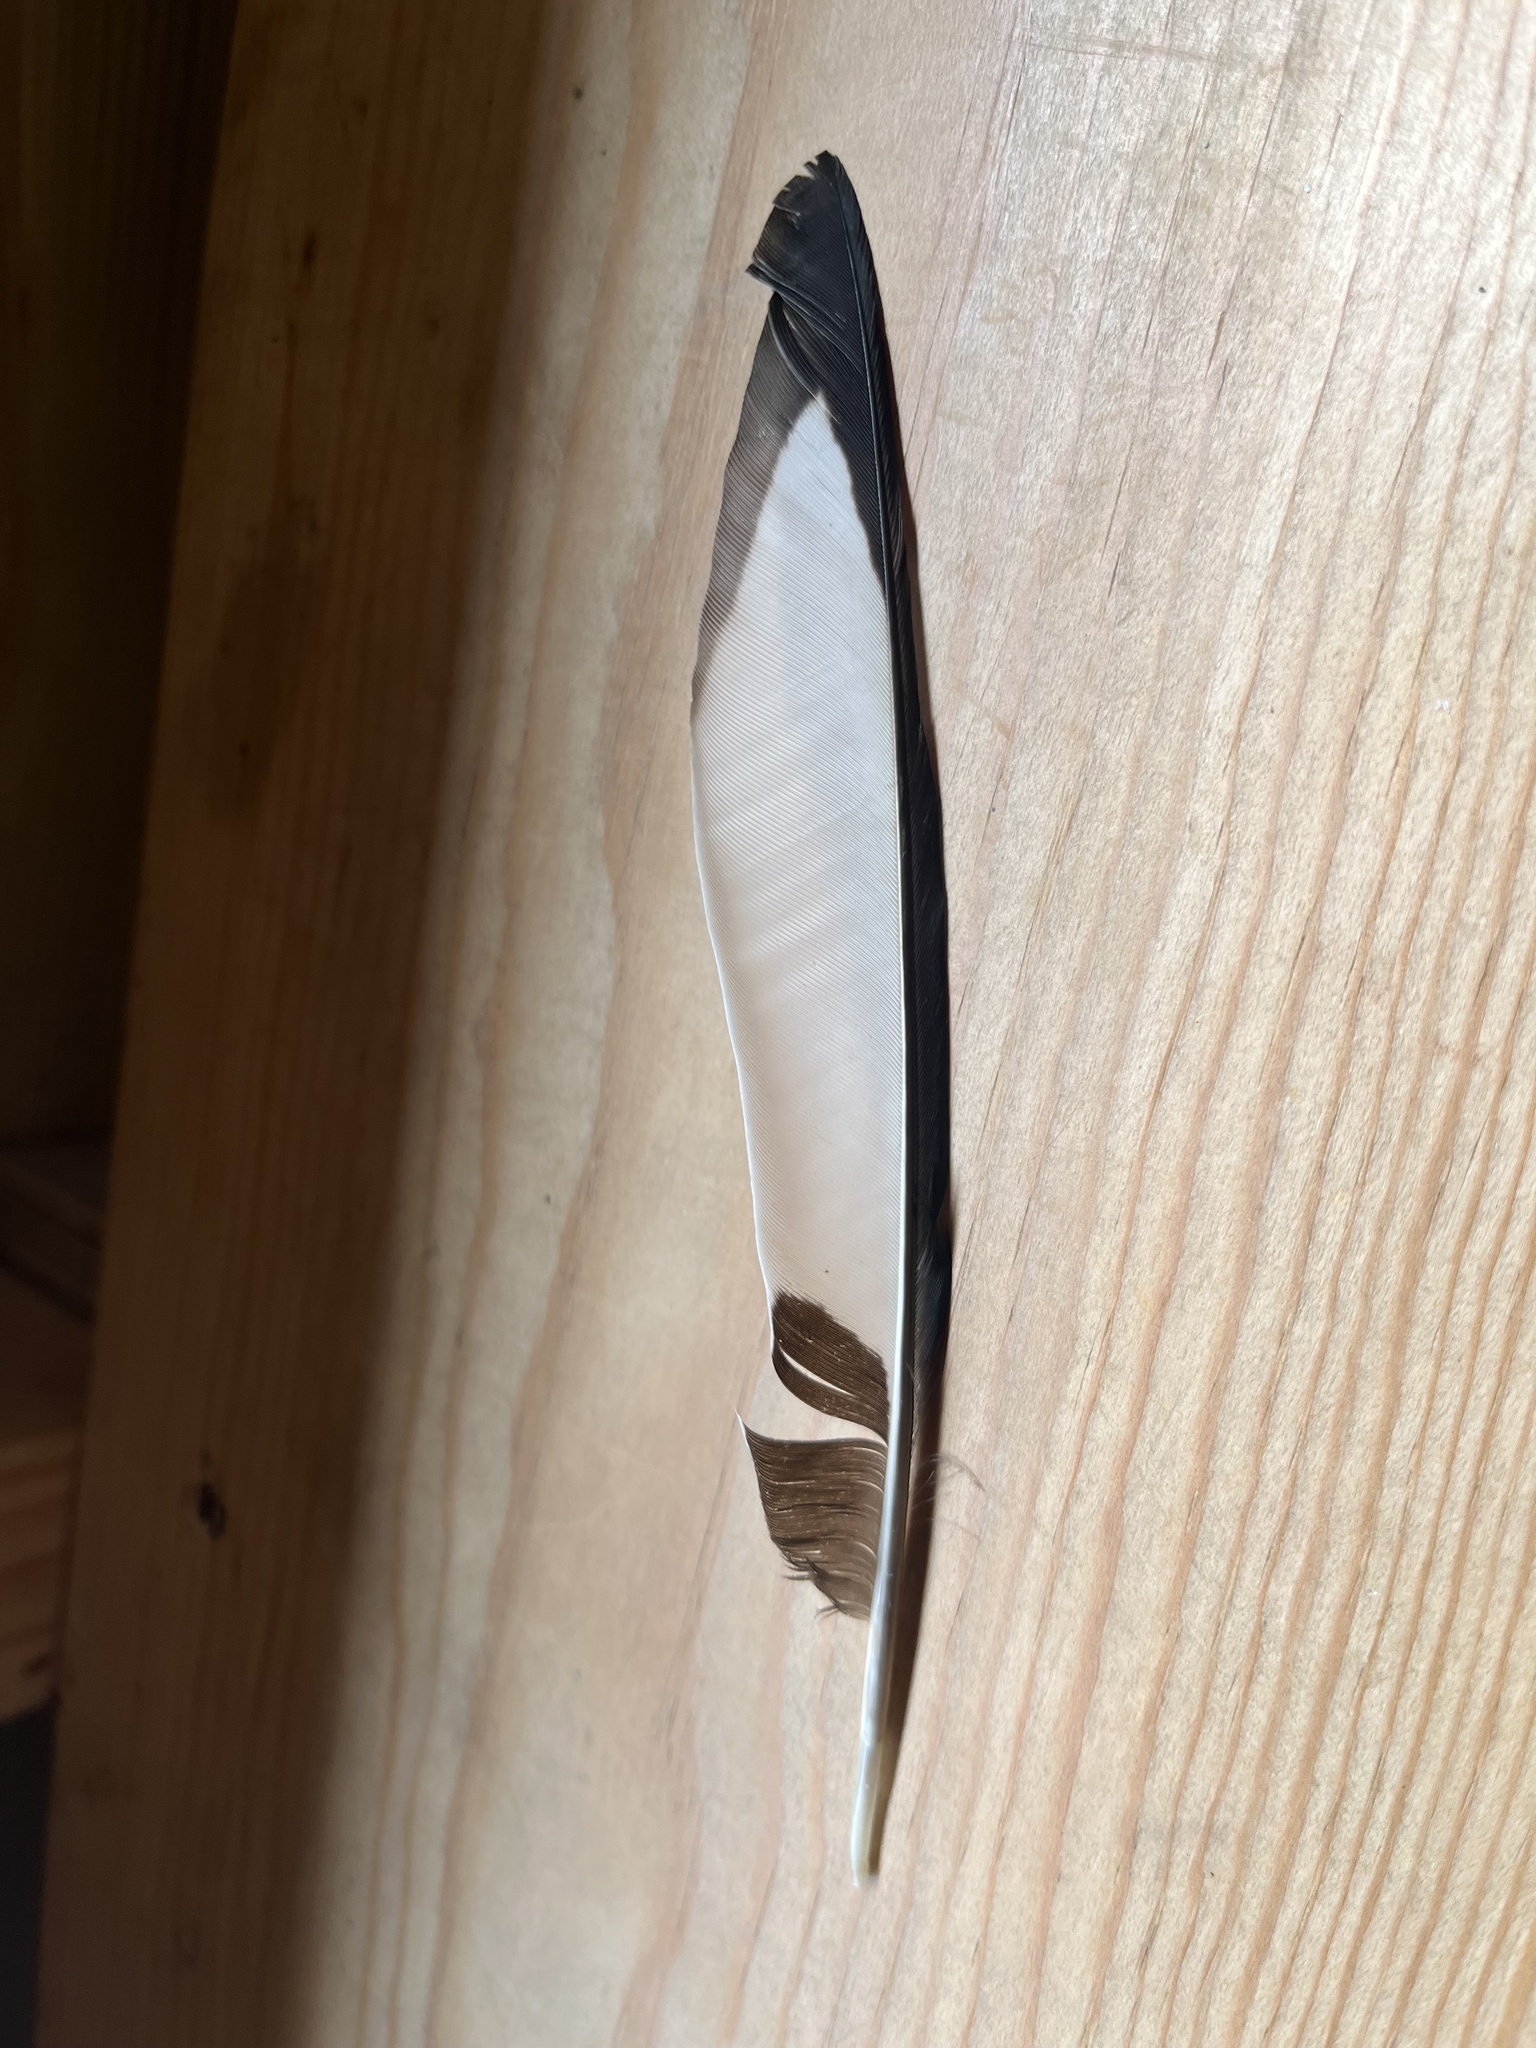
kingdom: Animalia
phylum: Chordata
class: Aves
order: Passeriformes
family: Corvidae
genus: Pica
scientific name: Pica pica
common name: Eurasian magpie
